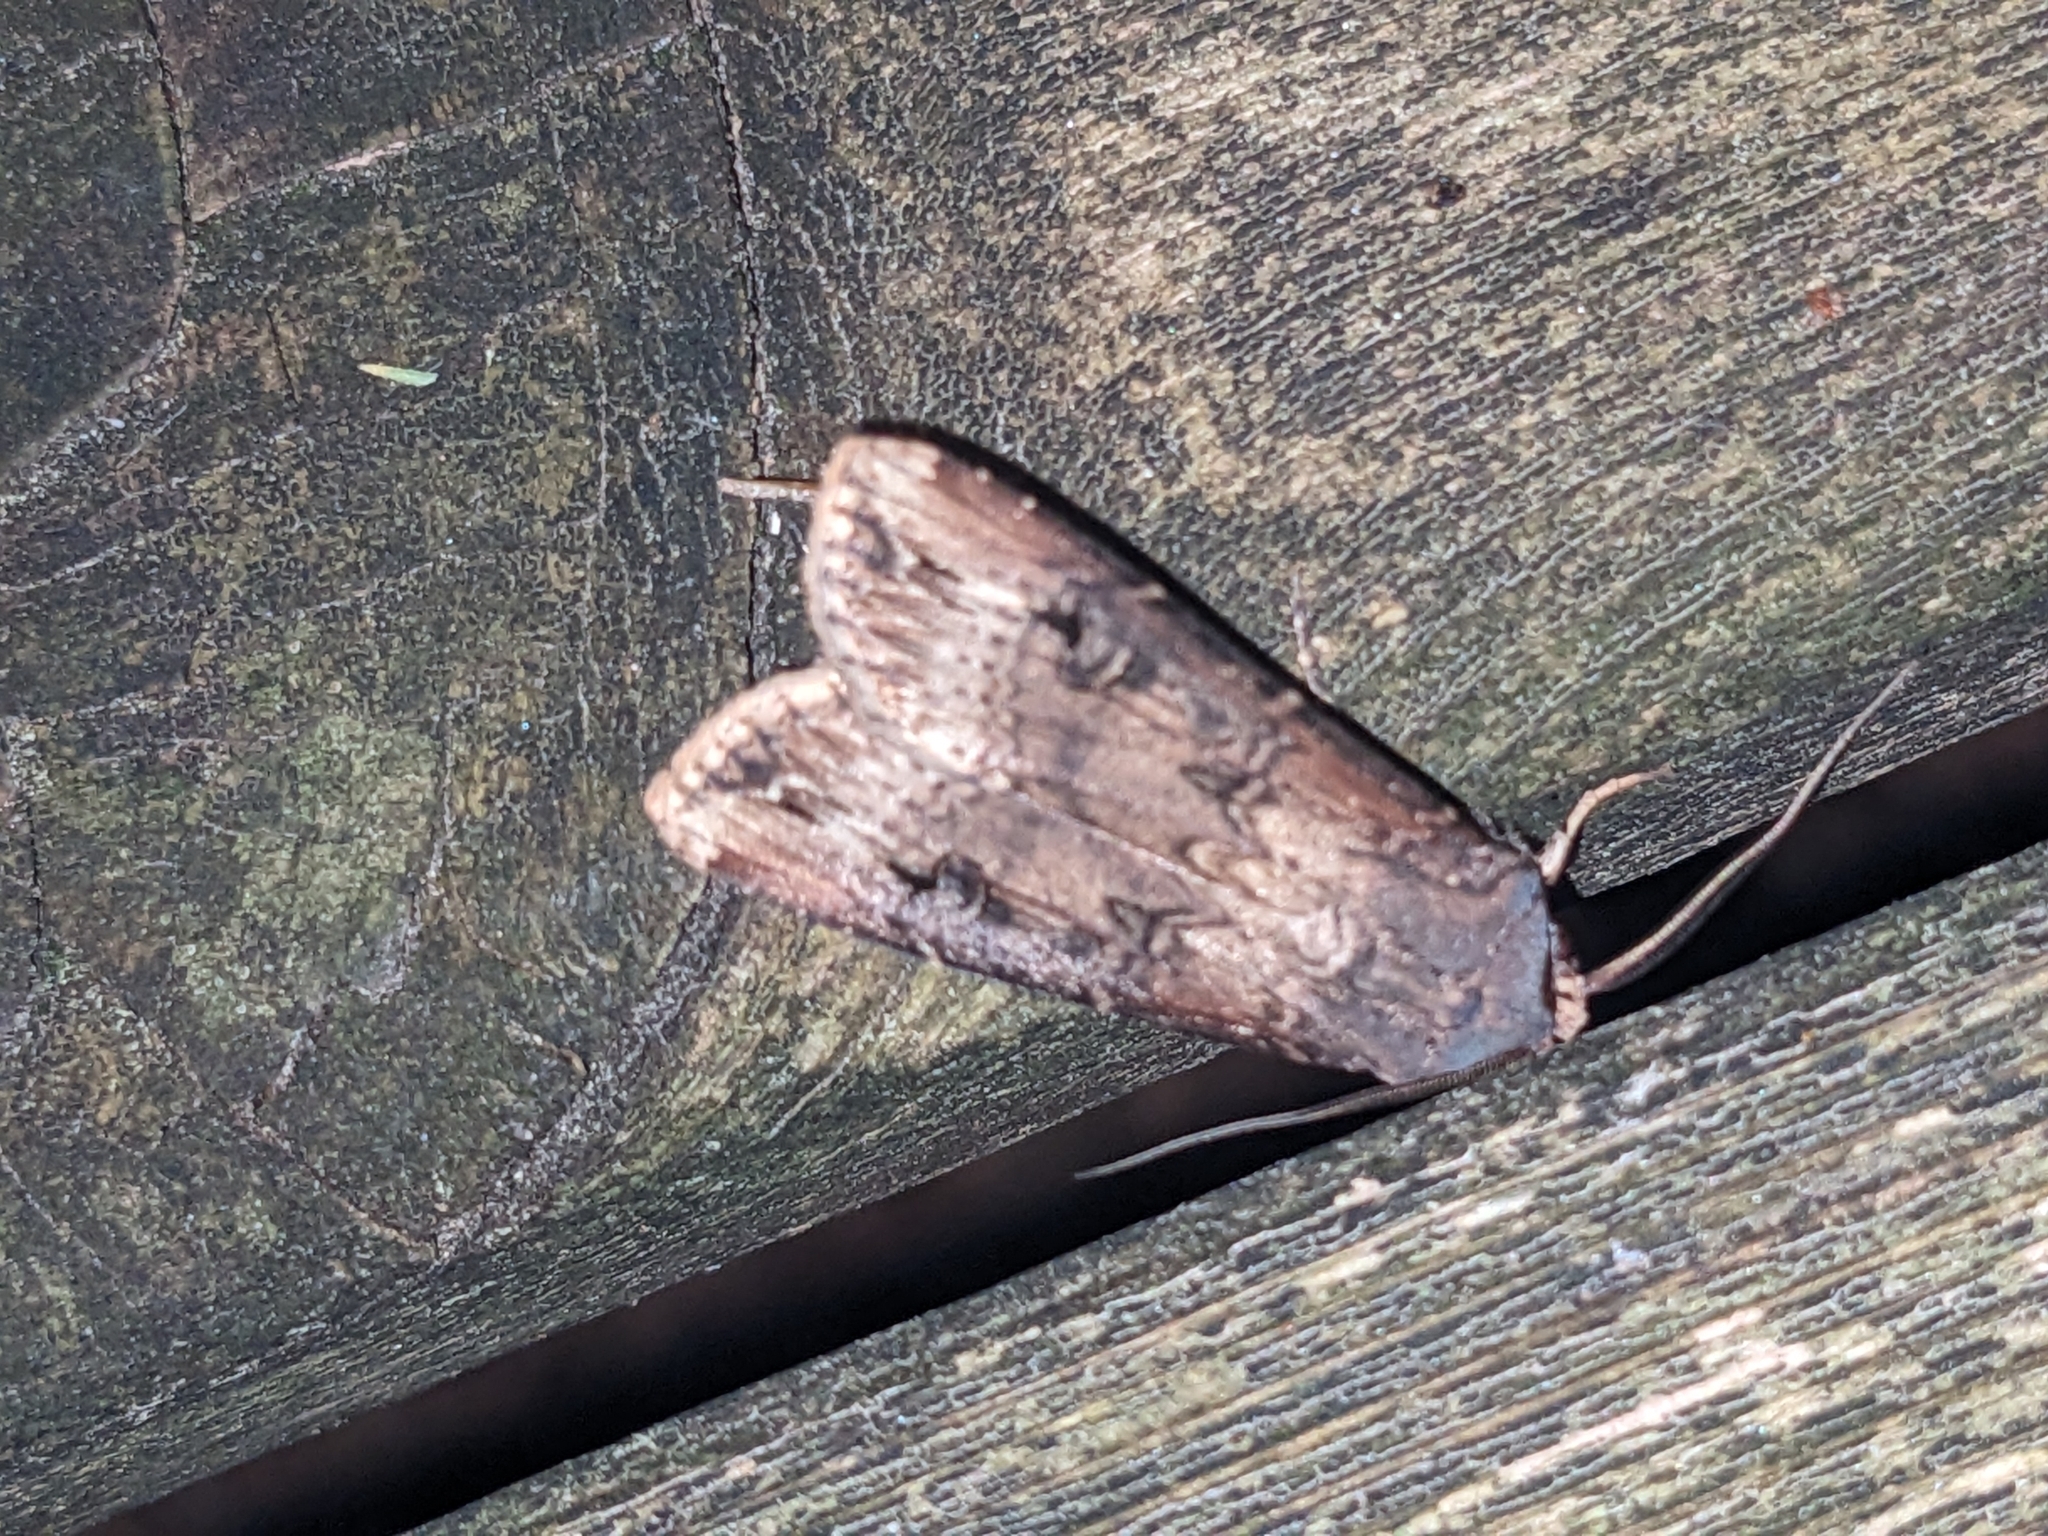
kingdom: Animalia
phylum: Arthropoda
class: Insecta
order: Lepidoptera
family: Noctuidae
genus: Agrotis
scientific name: Agrotis ipsilon
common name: Dark sword-grass
